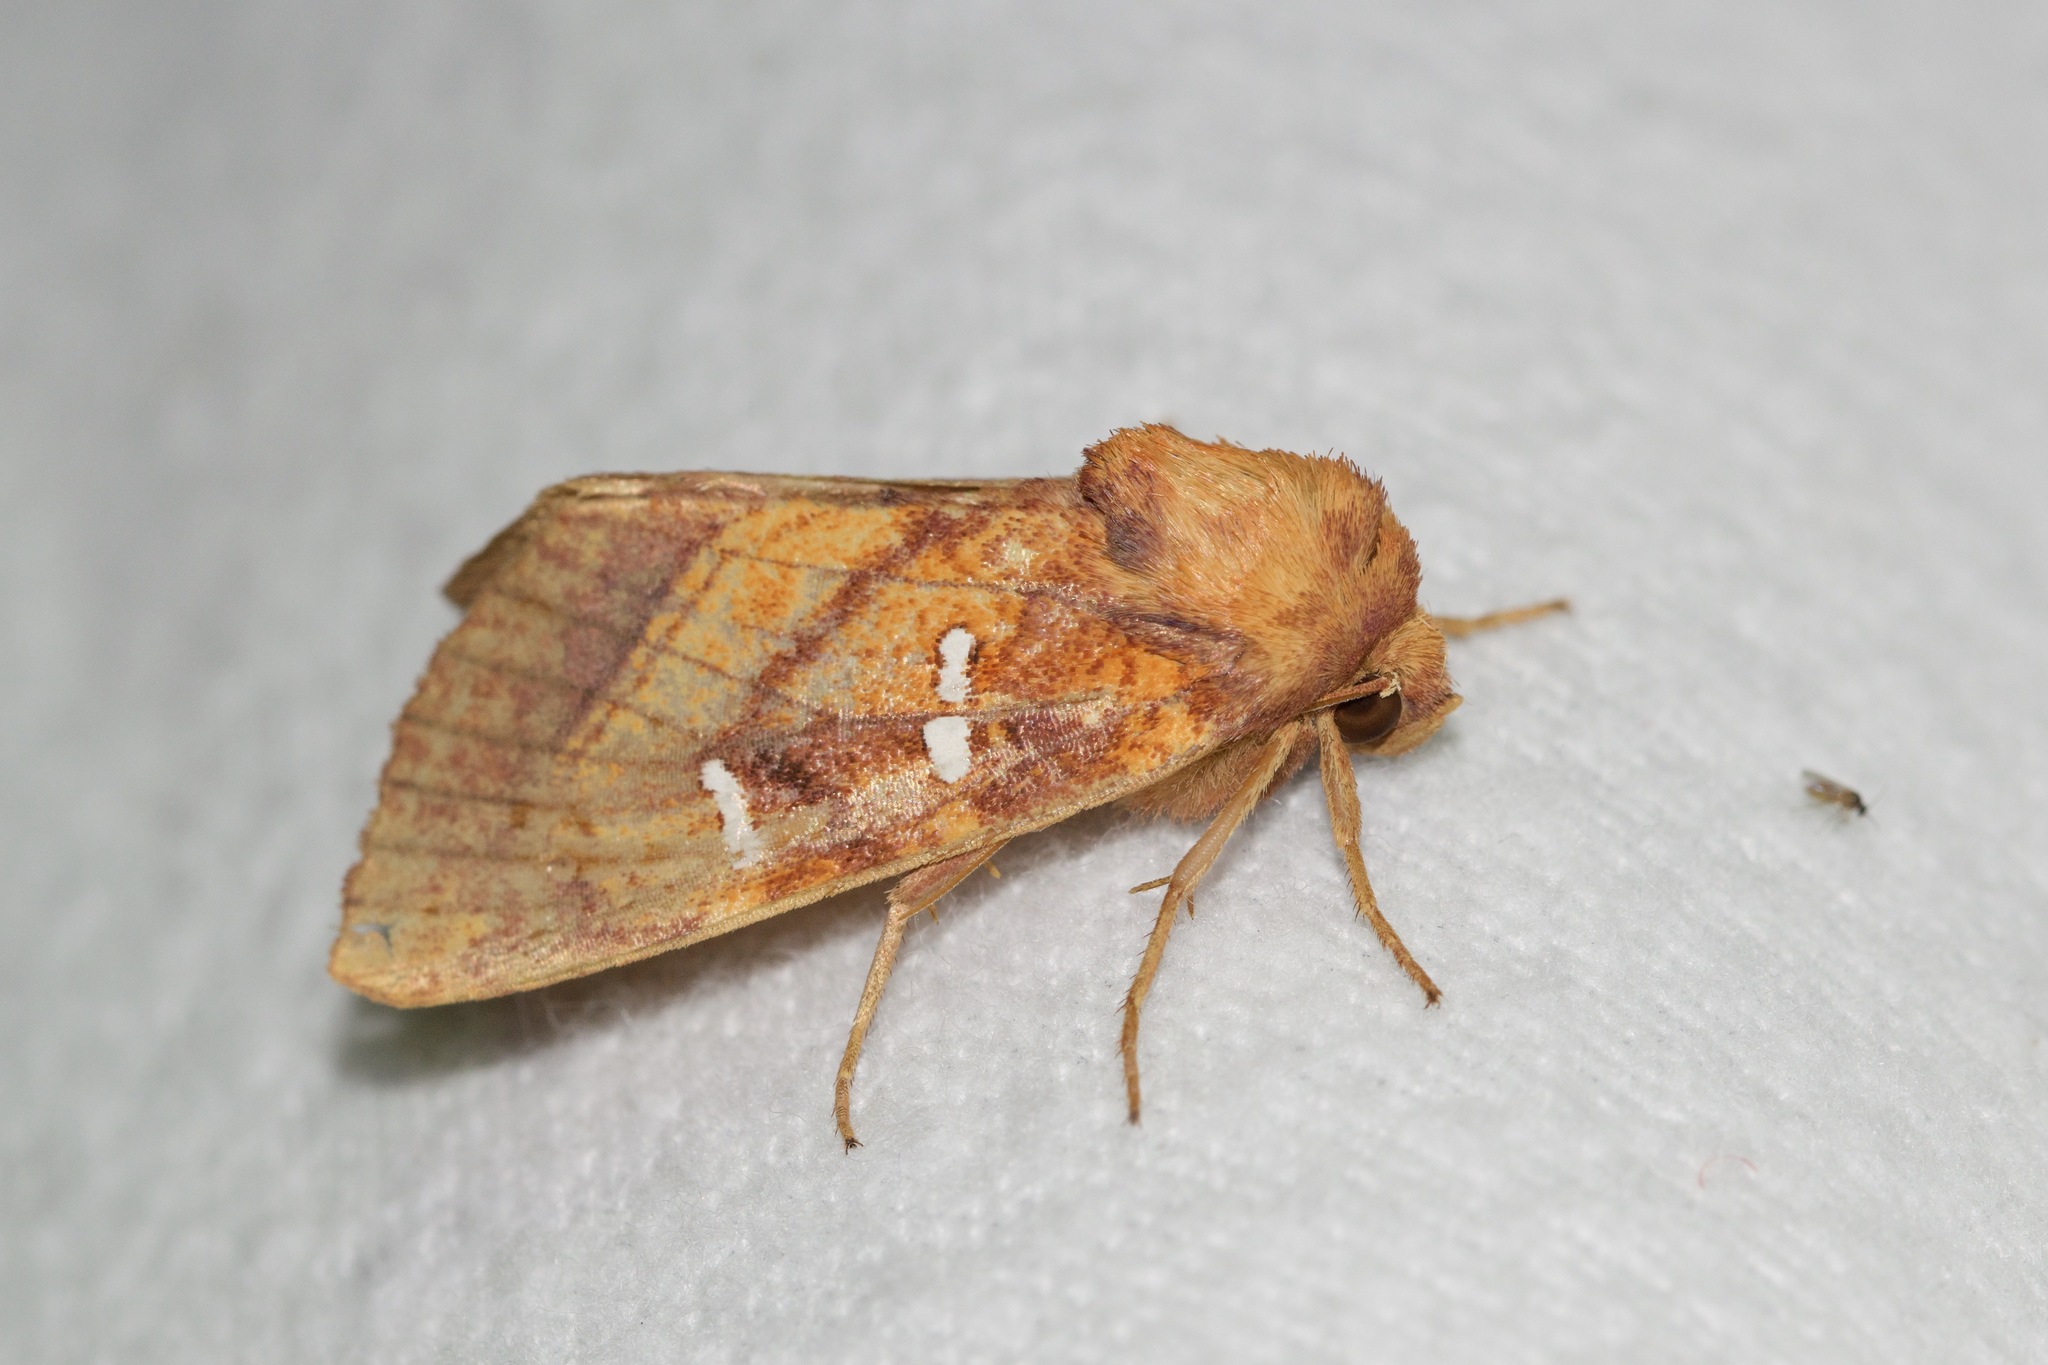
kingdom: Animalia
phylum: Arthropoda
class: Insecta
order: Lepidoptera
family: Noctuidae
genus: Papaipema
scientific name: Papaipema speciosissima
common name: Osmunda borer moth
